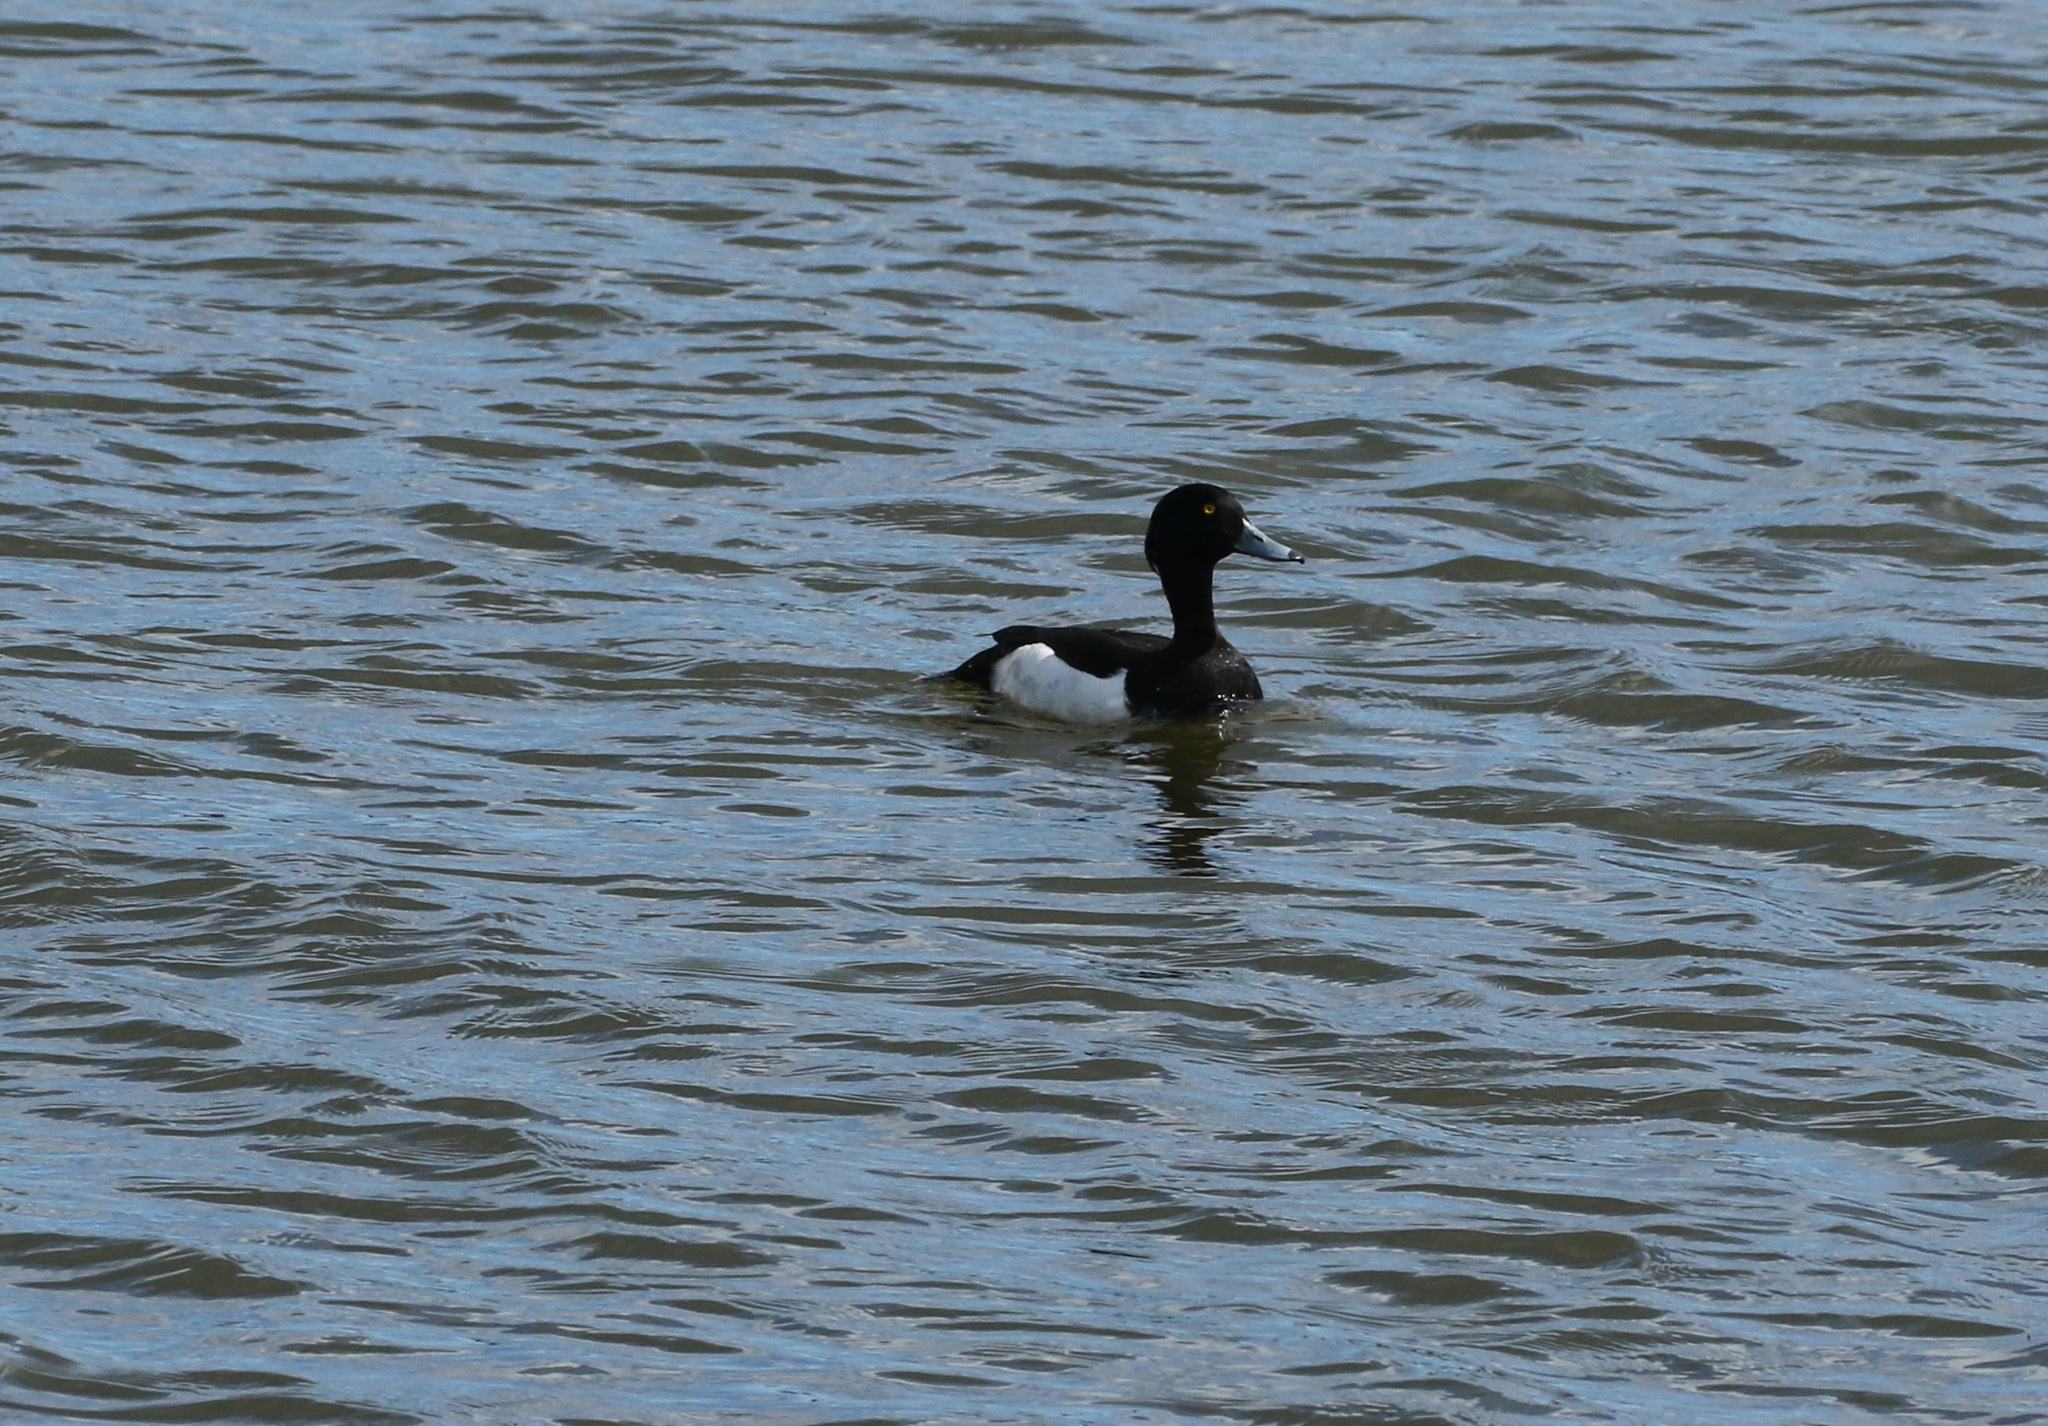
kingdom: Animalia
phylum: Chordata
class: Aves
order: Anseriformes
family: Anatidae
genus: Aythya
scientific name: Aythya fuligula
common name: Tufted duck
